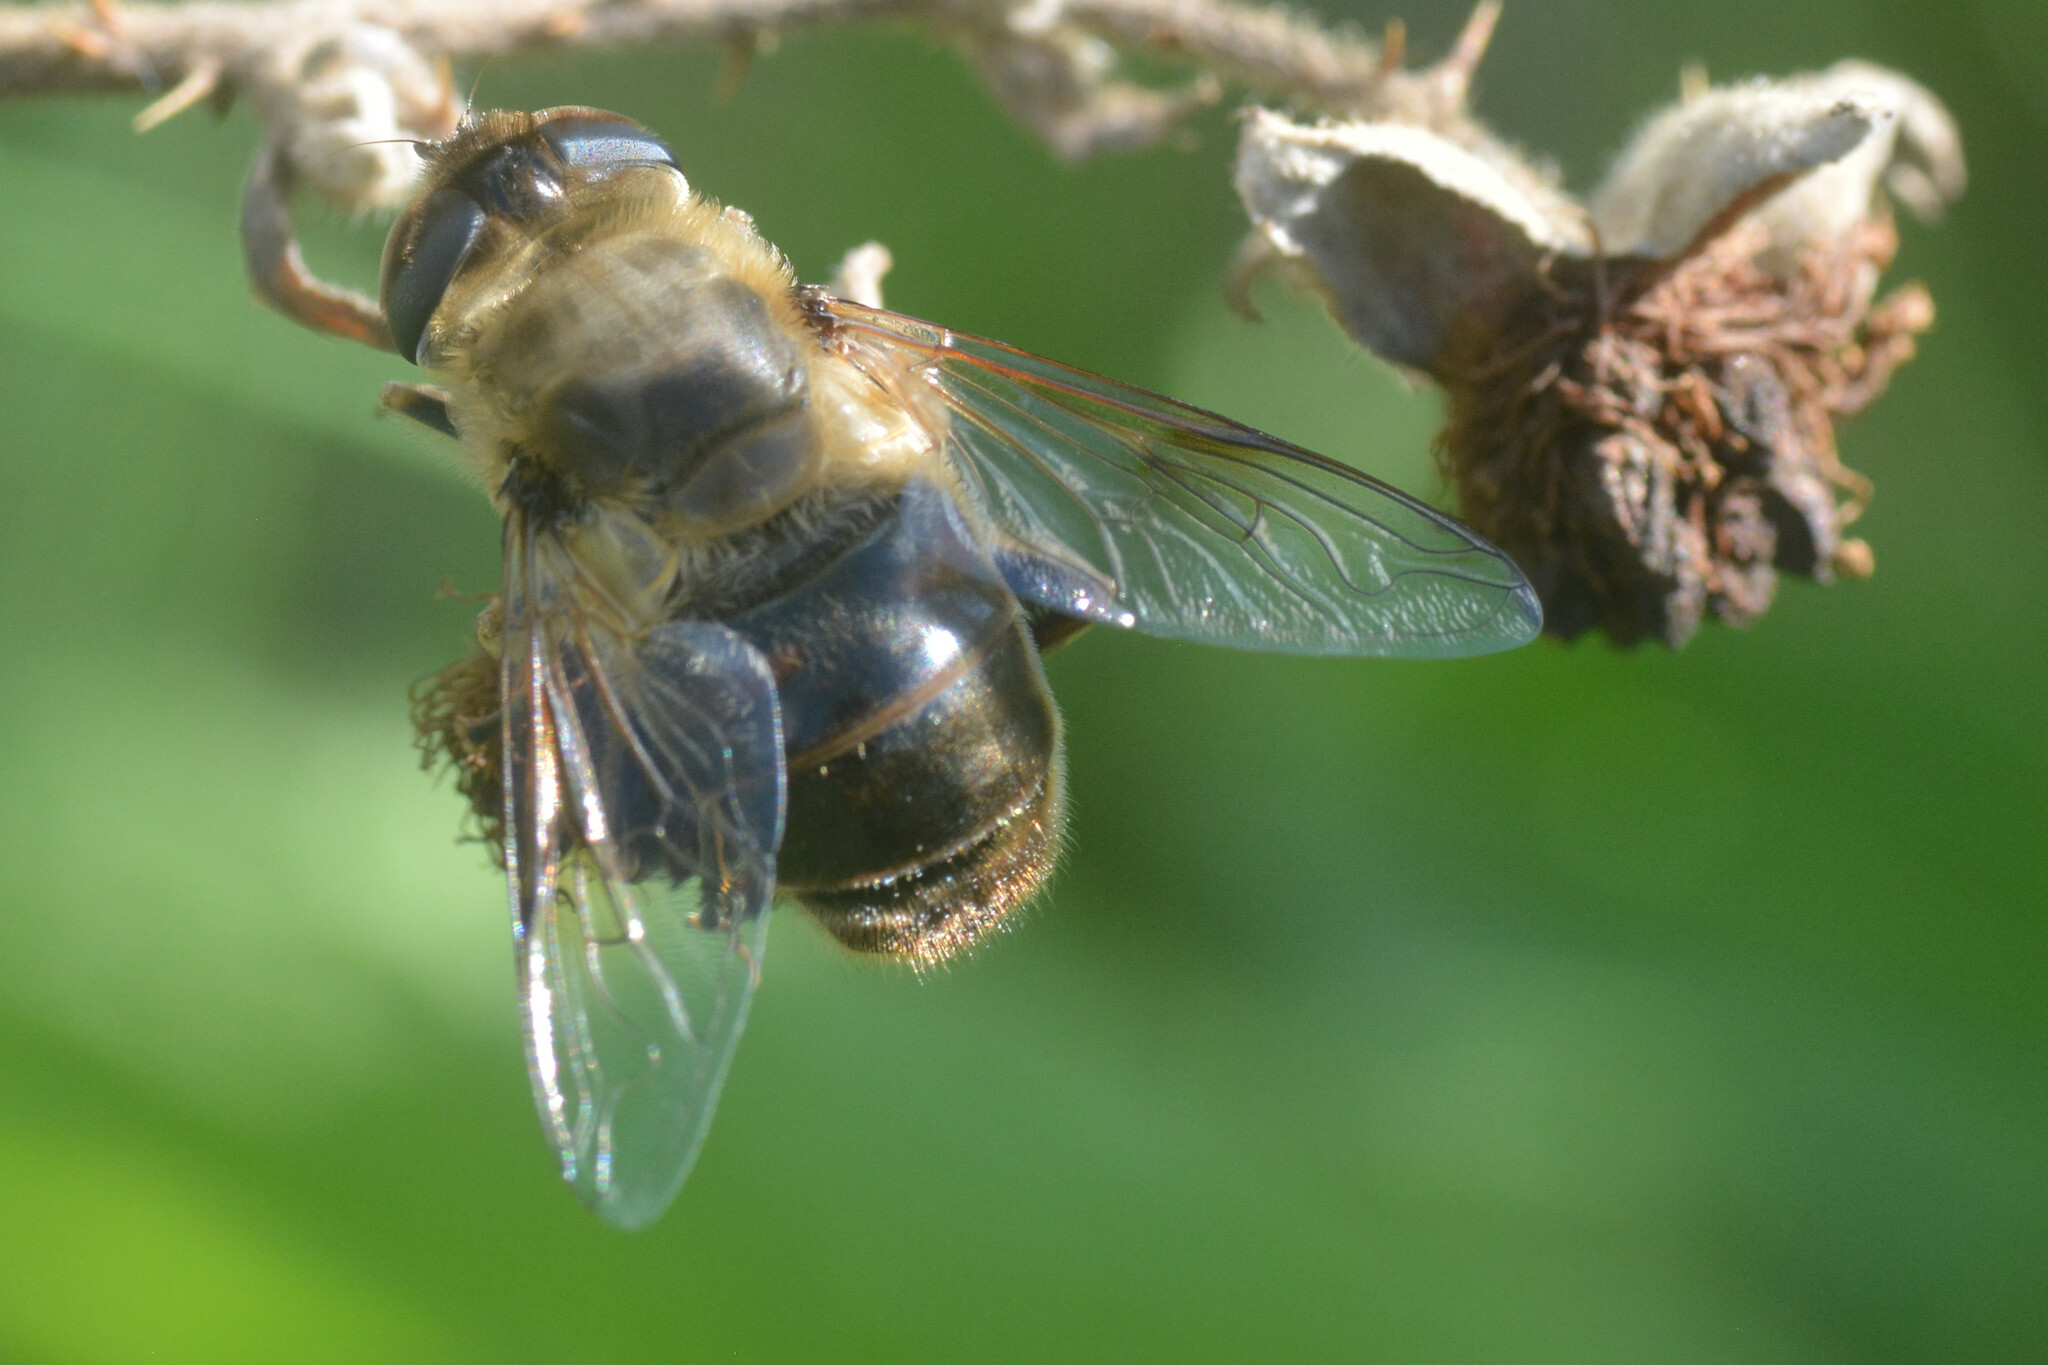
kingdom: Animalia
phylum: Arthropoda
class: Insecta
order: Diptera
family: Syrphidae
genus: Eristalis
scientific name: Eristalis tenax
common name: Drone fly
